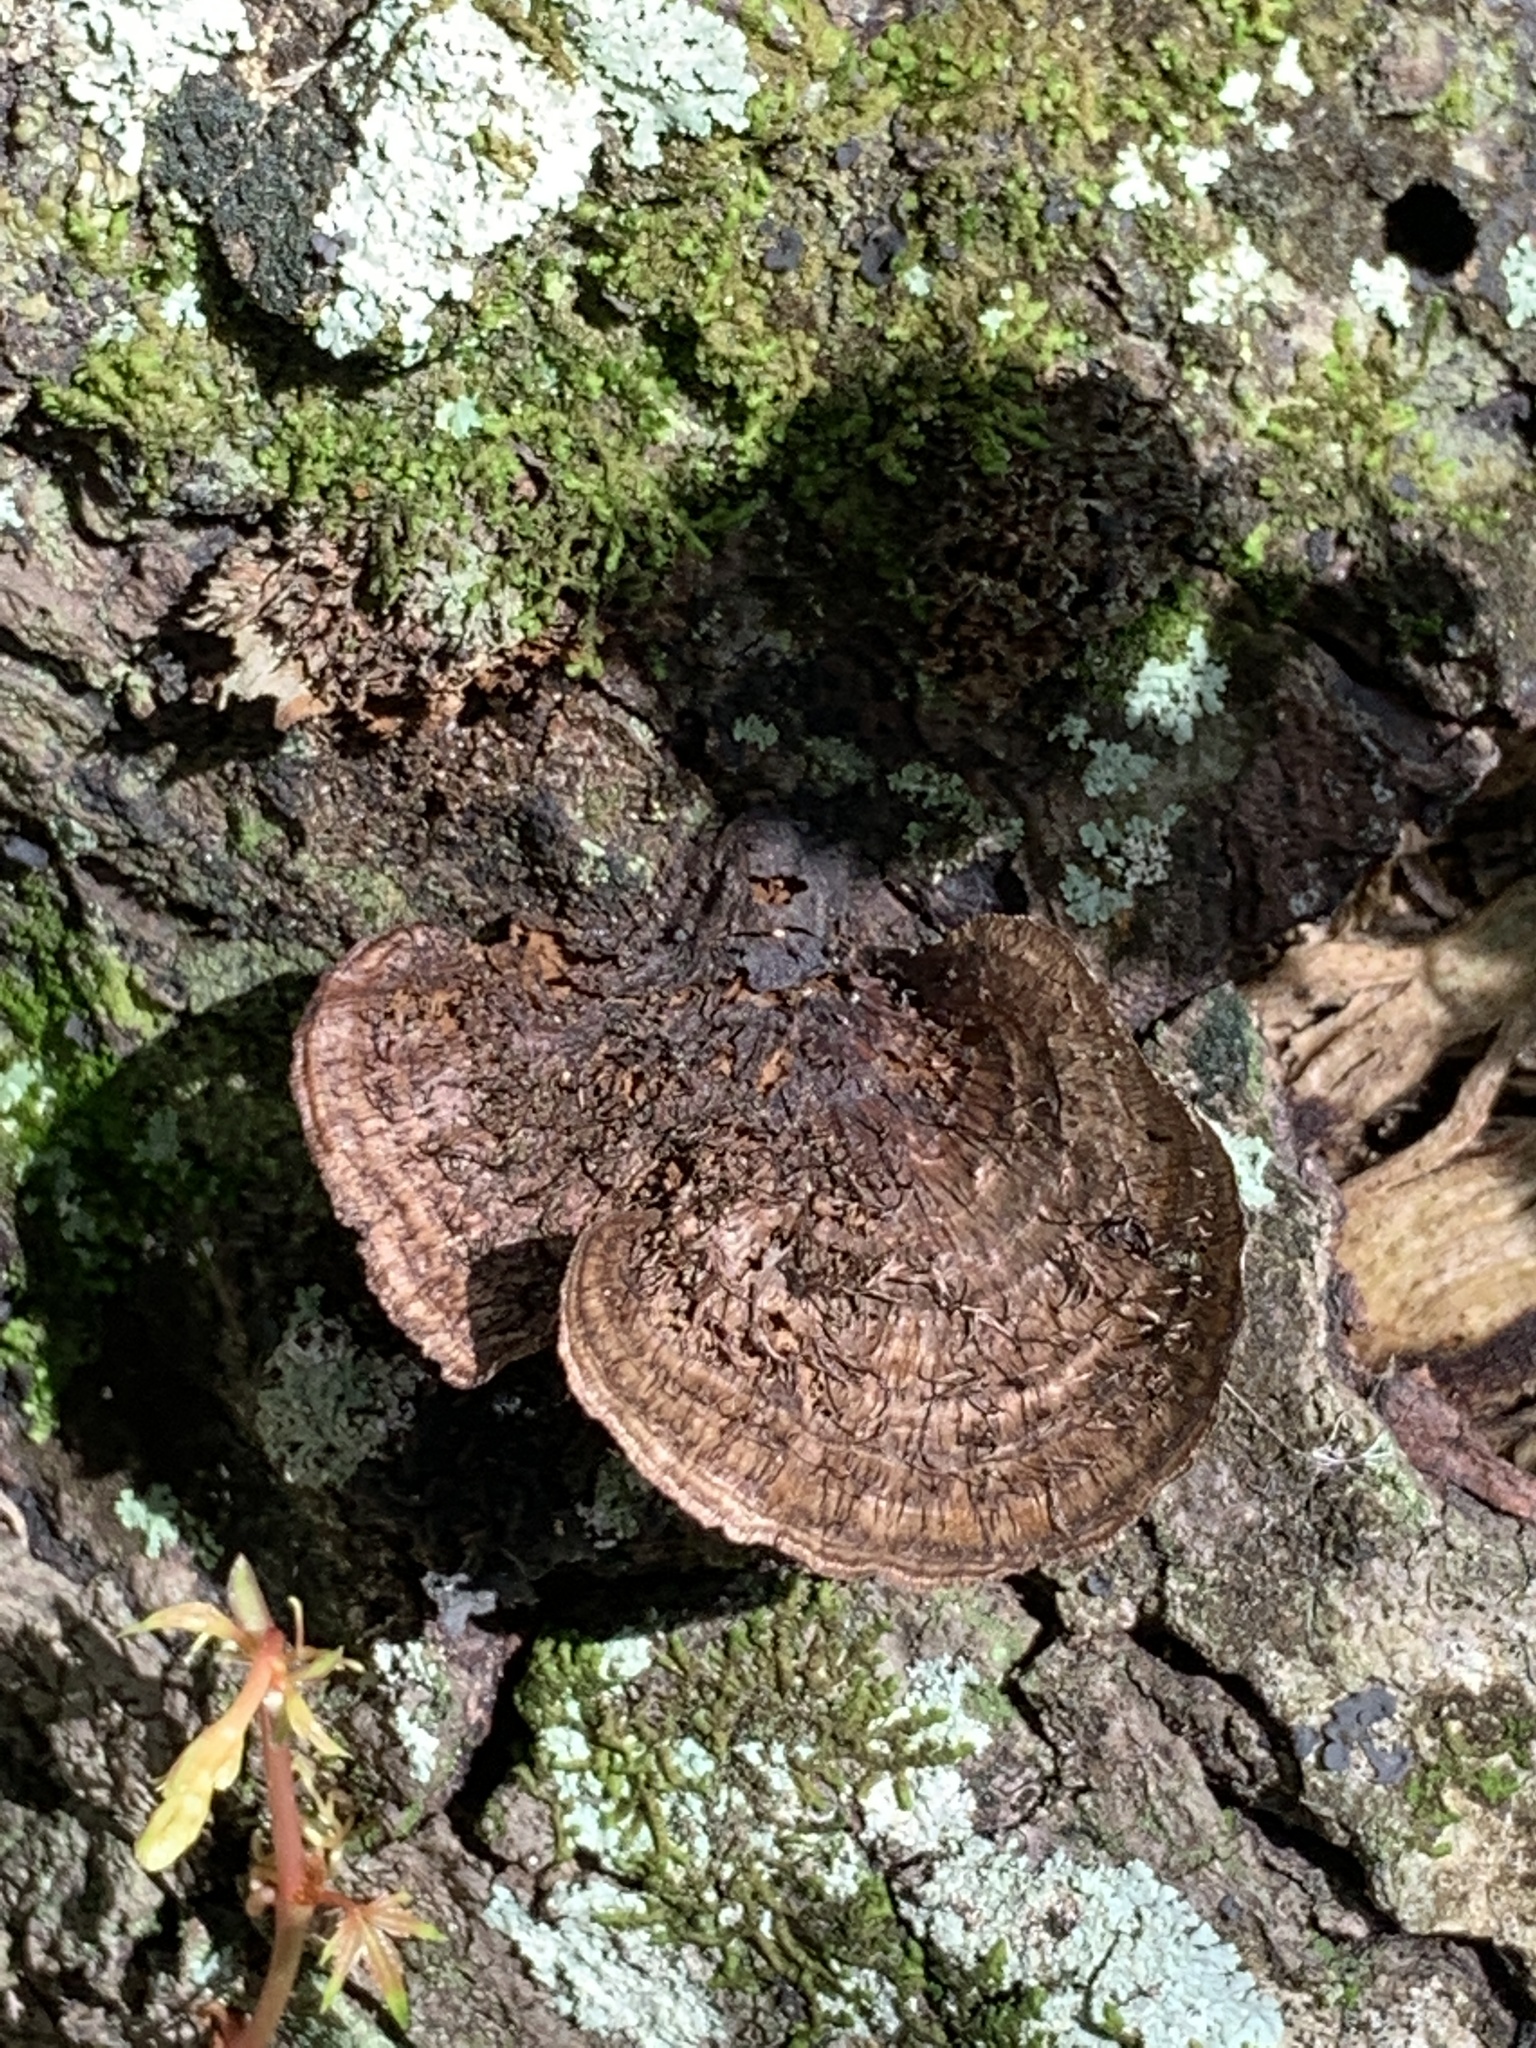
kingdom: Fungi
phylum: Basidiomycota
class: Agaricomycetes
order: Polyporales
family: Cerrenaceae
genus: Cerrena
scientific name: Cerrena hydnoides
